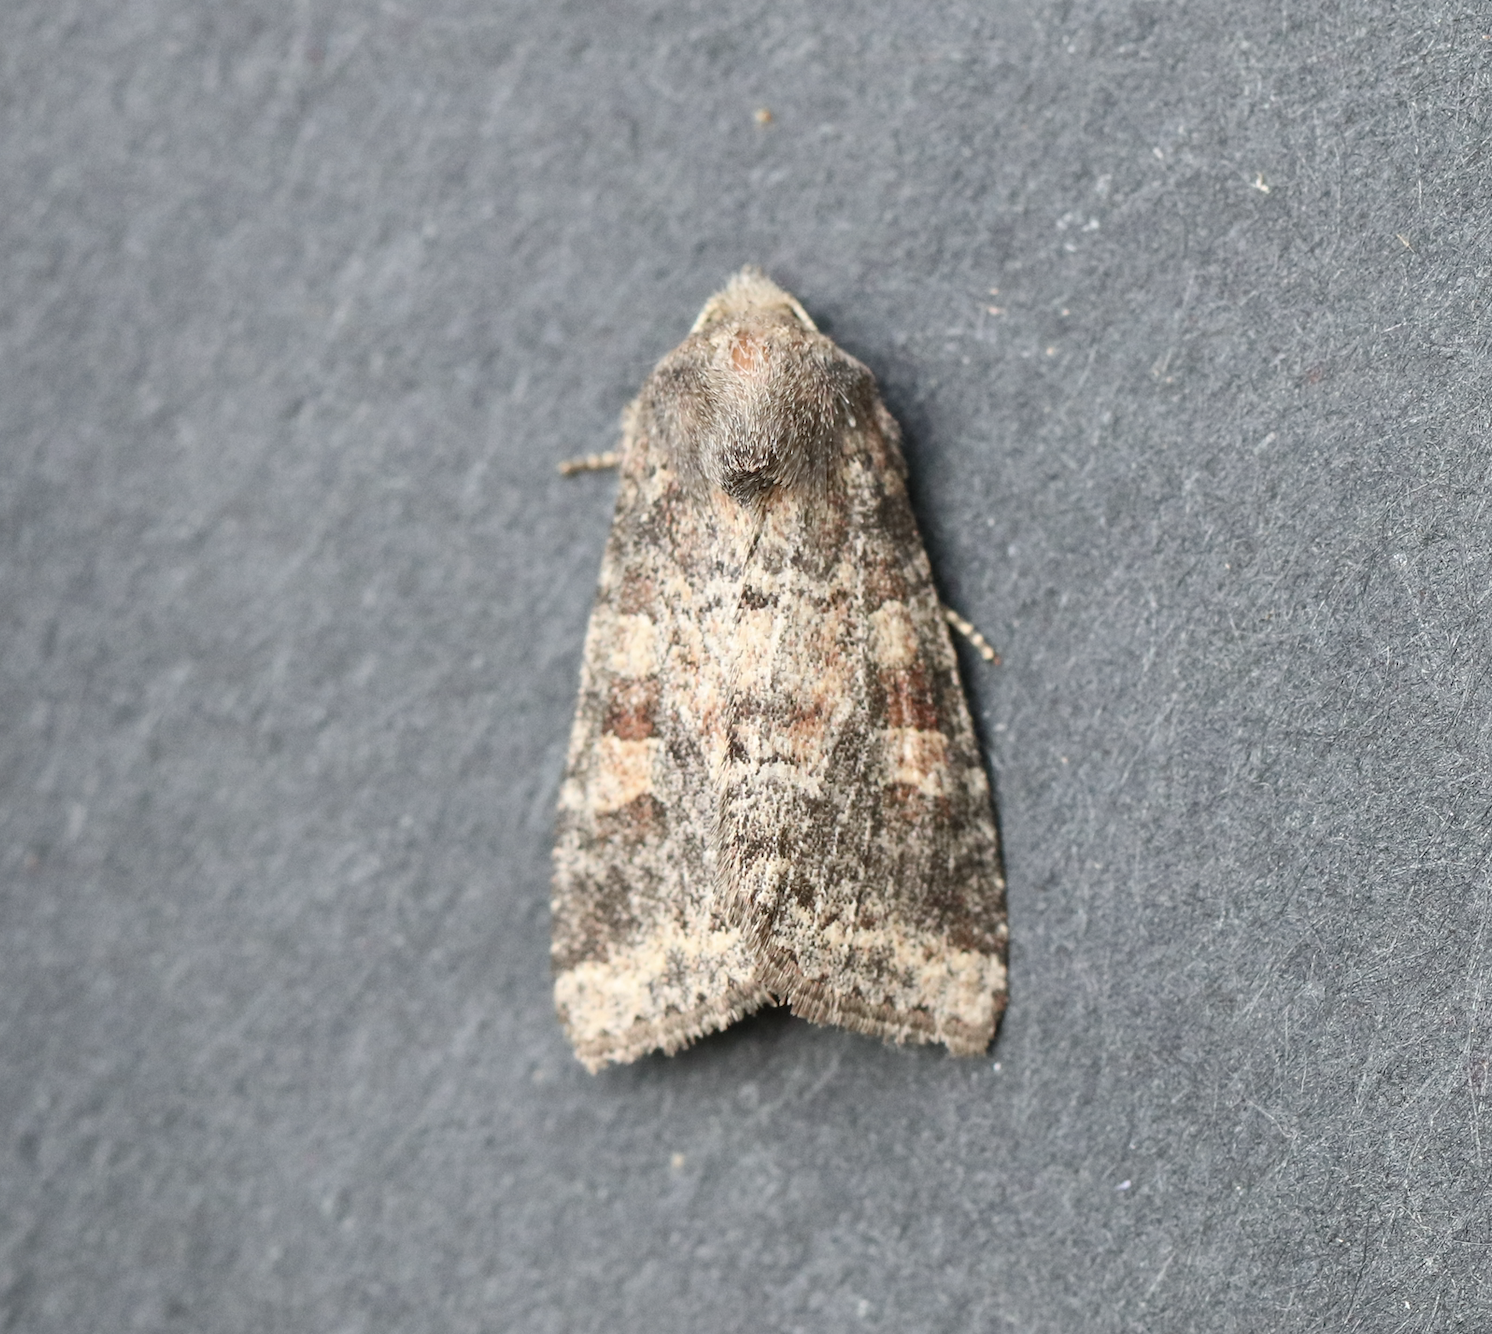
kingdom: Animalia
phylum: Arthropoda
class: Insecta
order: Lepidoptera
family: Noctuidae
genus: Parastichtis
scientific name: Parastichtis suspecta
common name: Suspected
